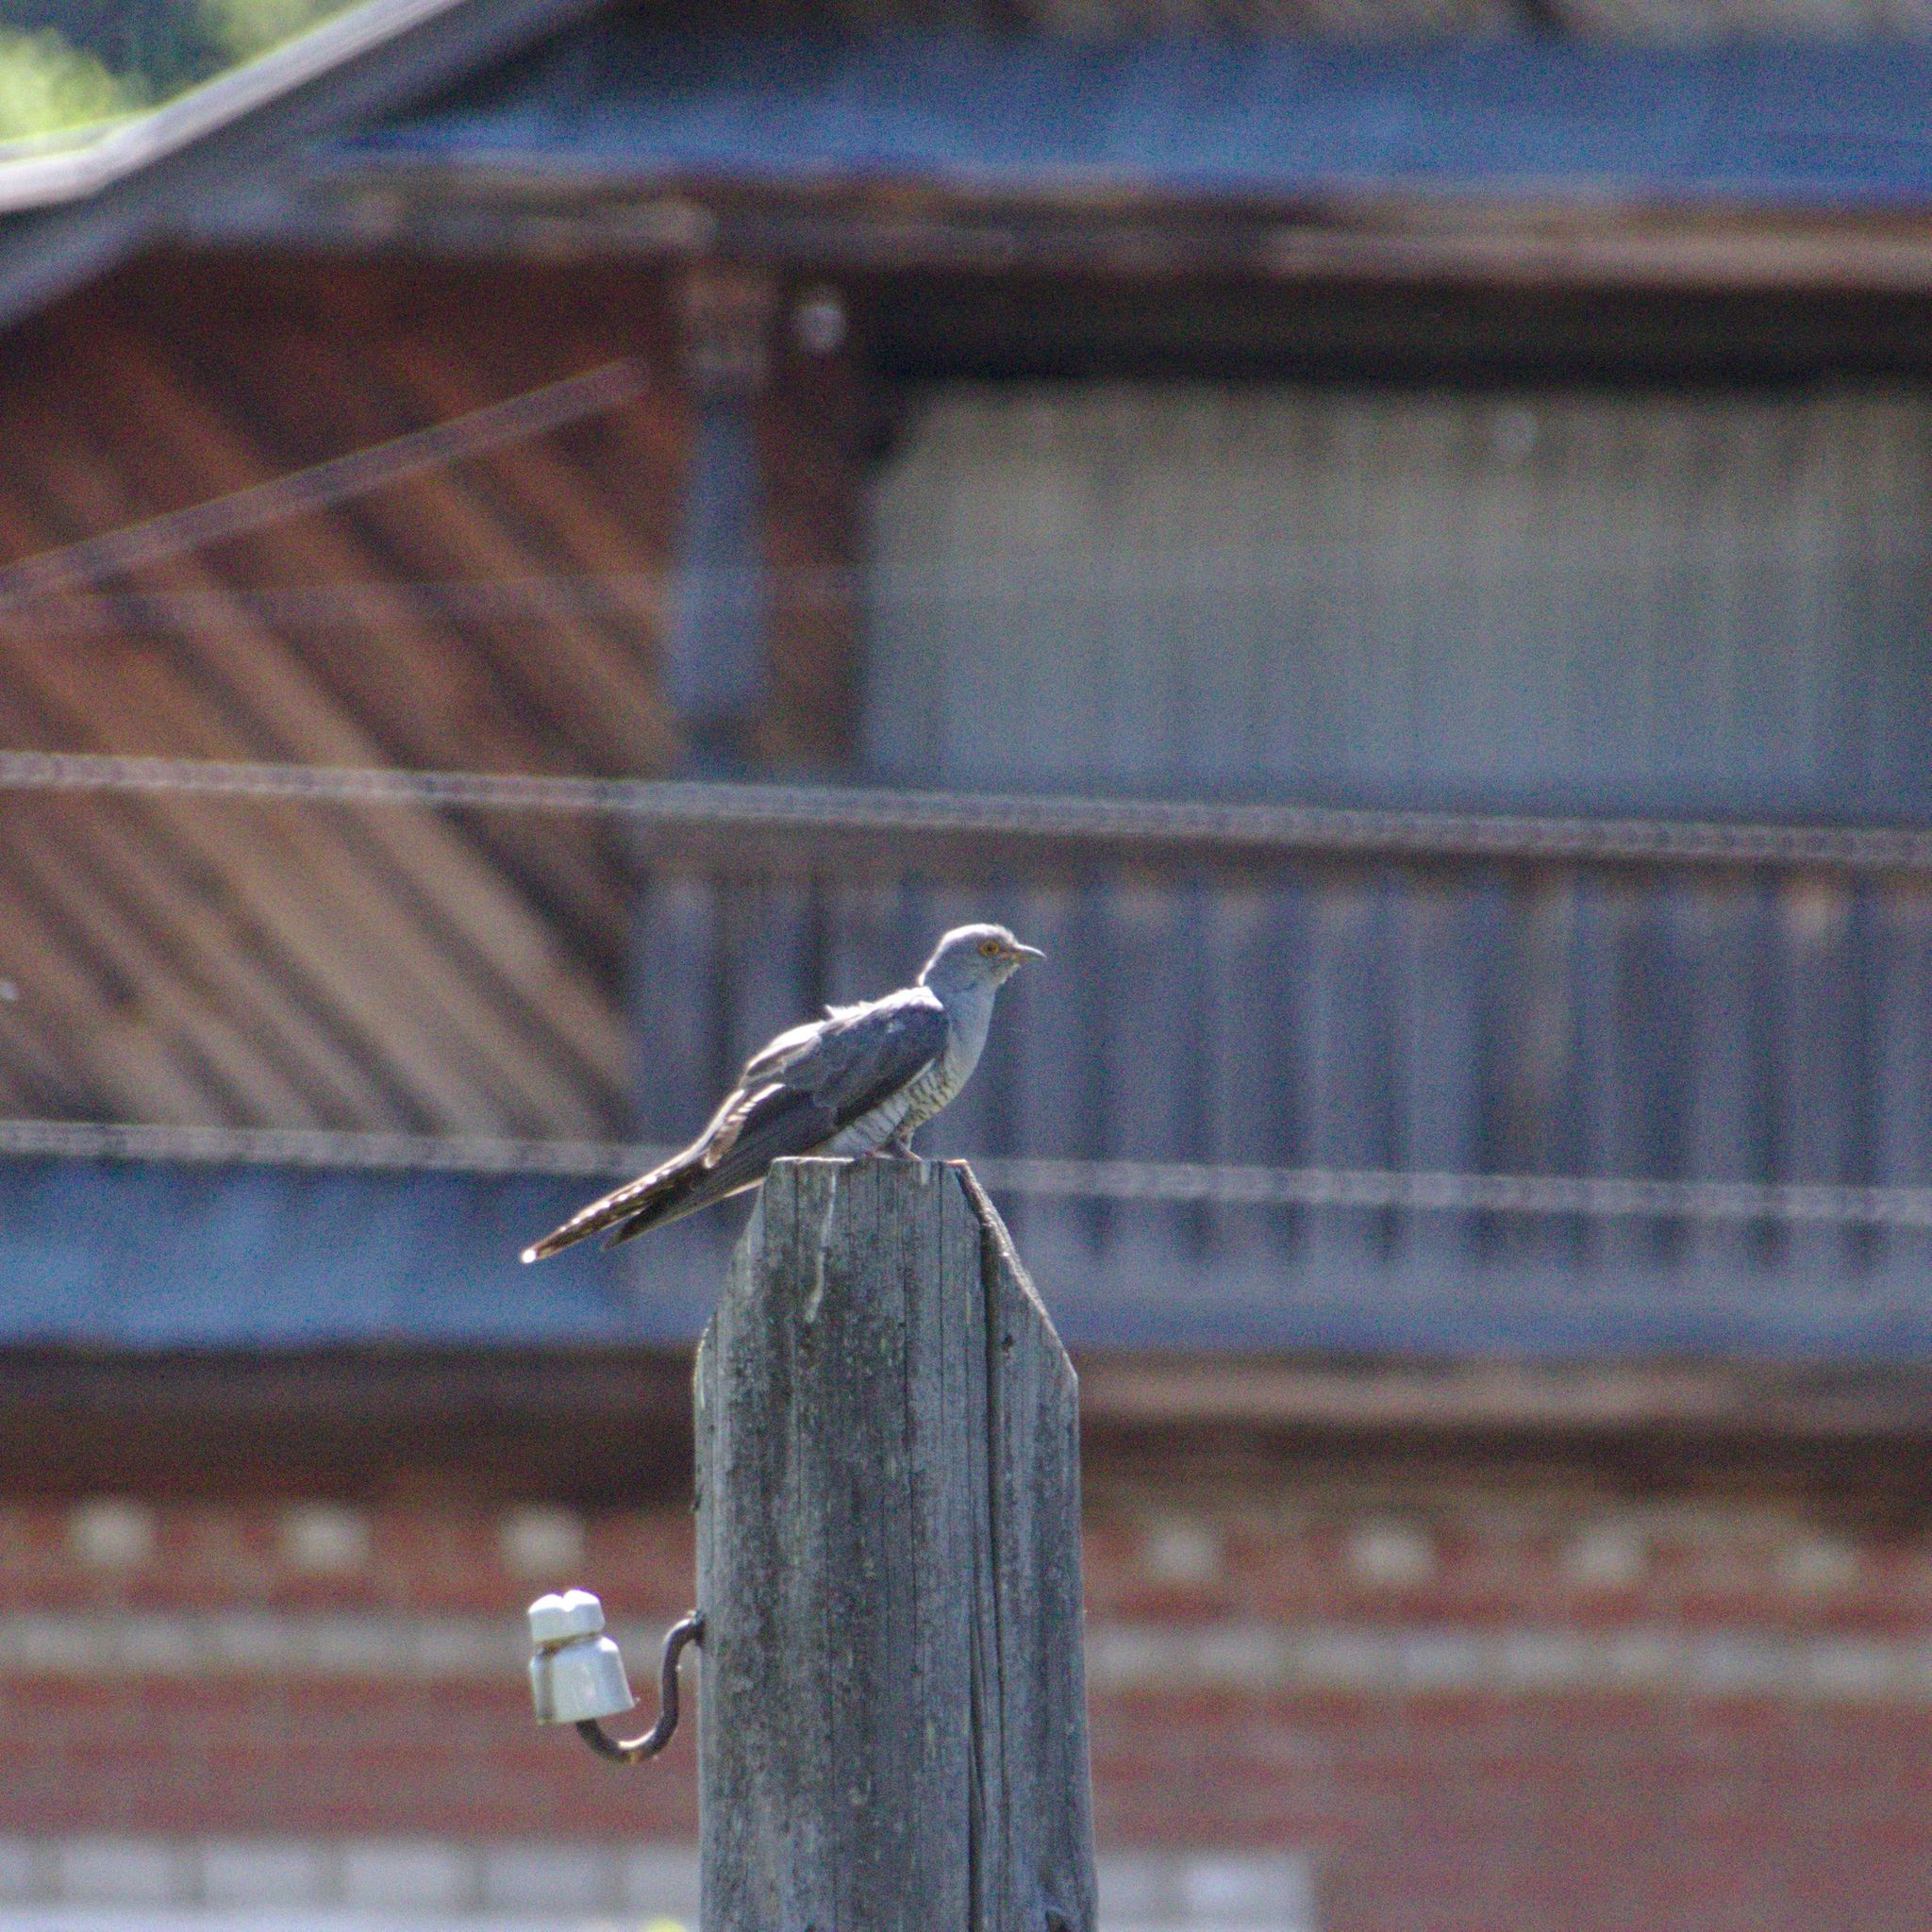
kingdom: Animalia
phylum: Chordata
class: Aves
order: Cuculiformes
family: Cuculidae
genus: Cuculus
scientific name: Cuculus canorus
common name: Common cuckoo
